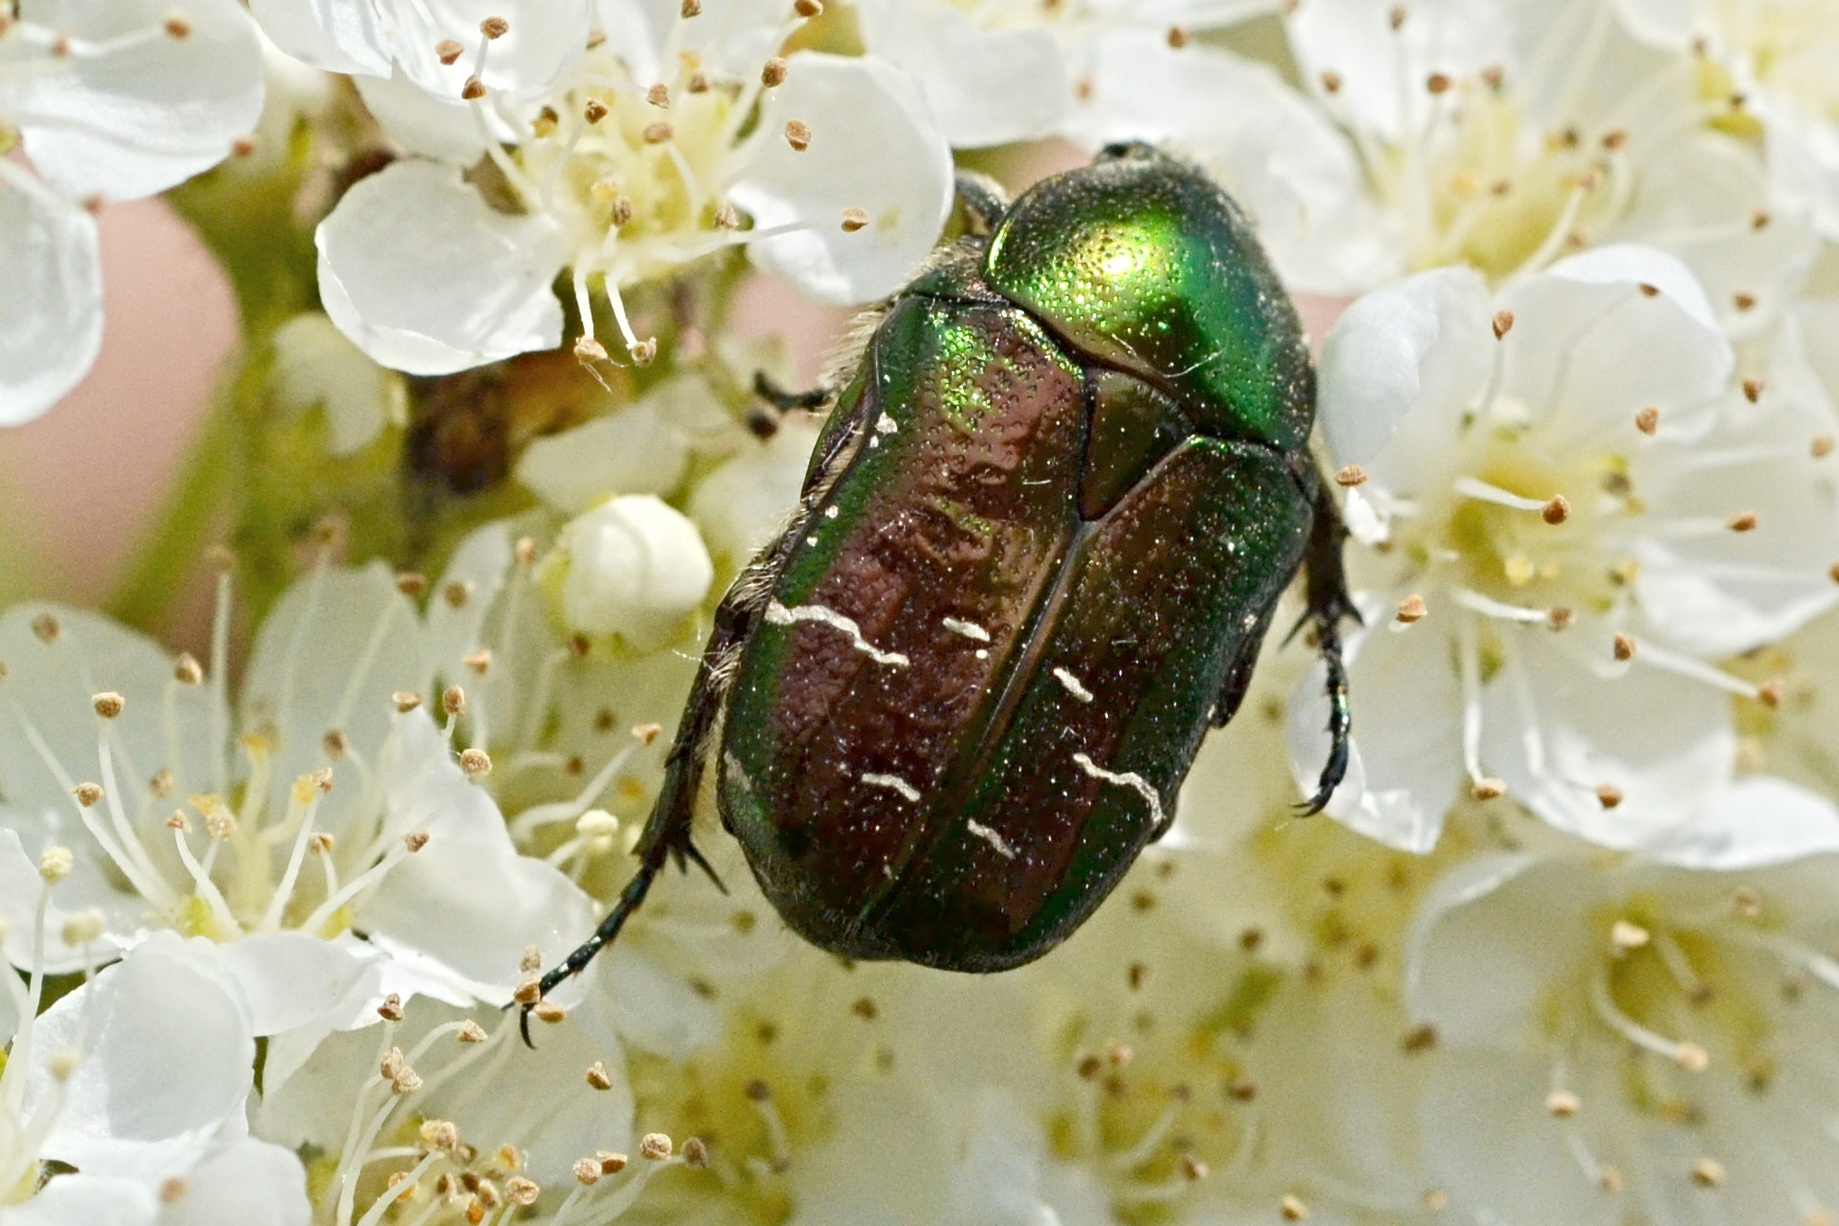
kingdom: Animalia
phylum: Arthropoda
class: Insecta
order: Coleoptera
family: Scarabaeidae
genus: Cetonia
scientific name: Cetonia aurata
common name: Rose chafer
